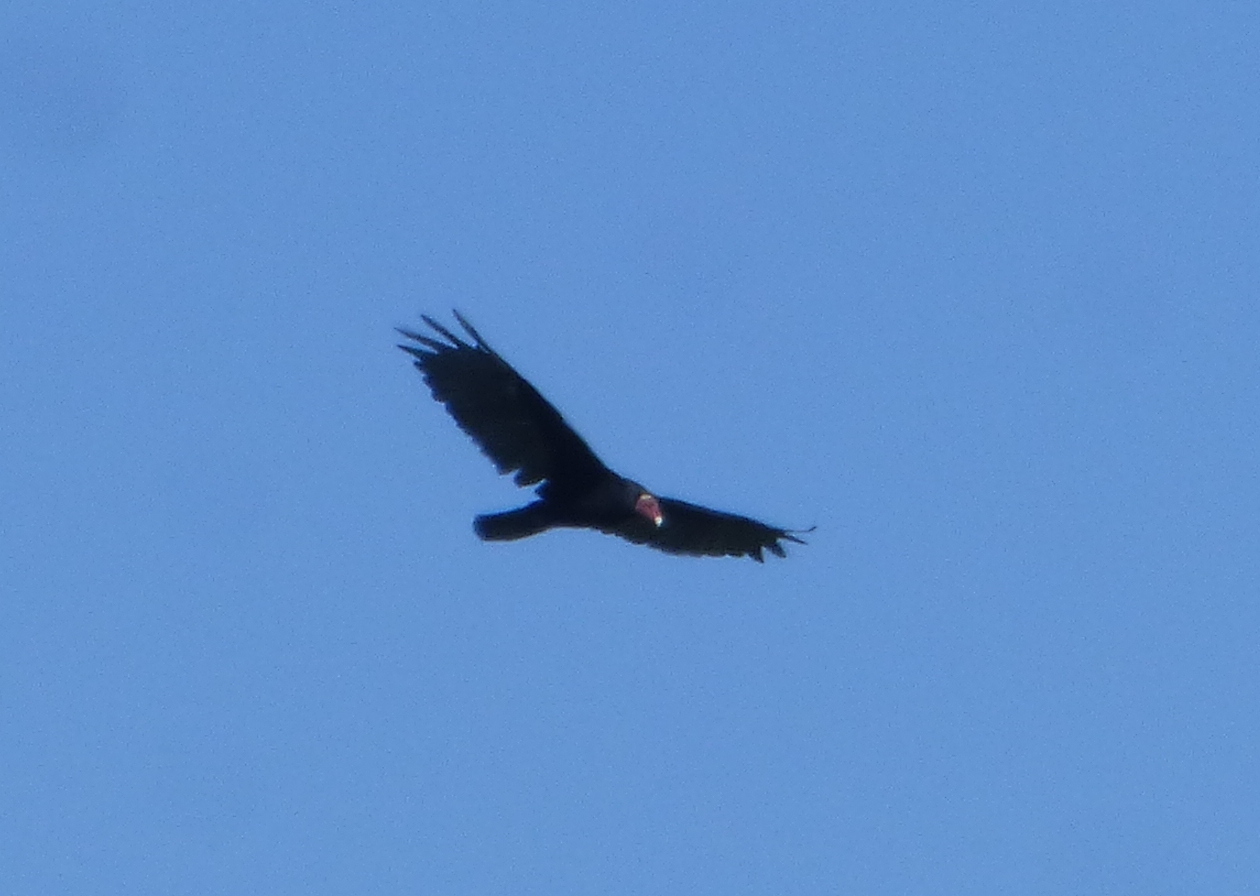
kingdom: Animalia
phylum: Chordata
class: Aves
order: Accipitriformes
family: Cathartidae
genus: Cathartes
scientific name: Cathartes aura
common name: Turkey vulture
